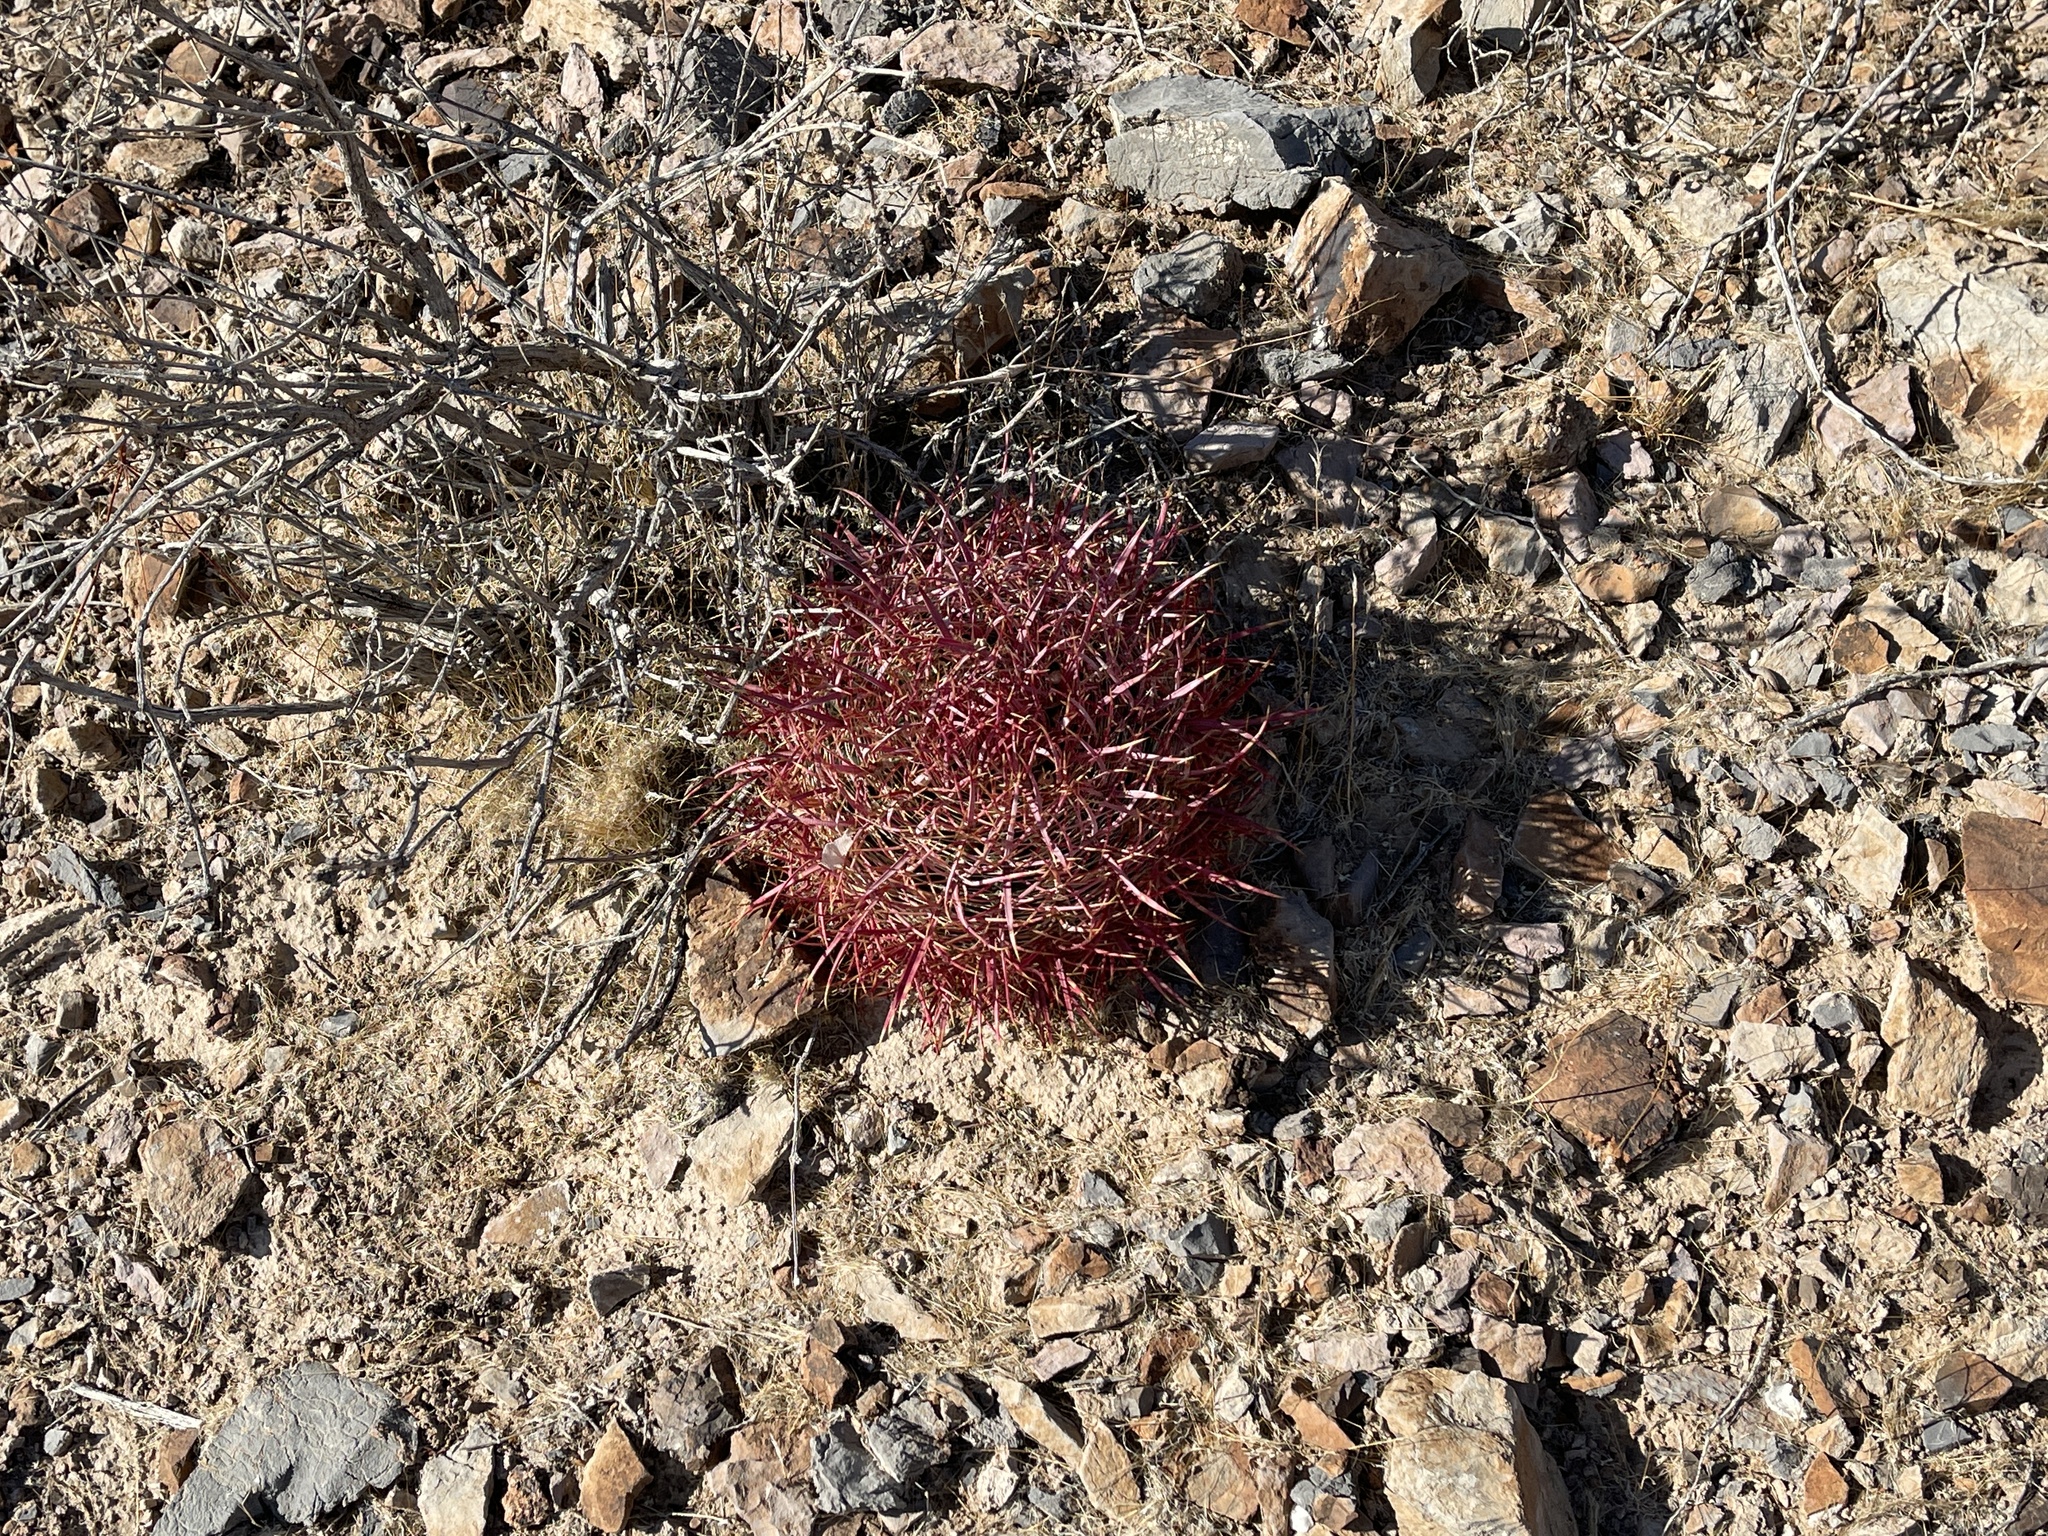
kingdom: Plantae
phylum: Tracheophyta
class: Magnoliopsida
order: Caryophyllales
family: Cactaceae
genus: Ferocactus
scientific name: Ferocactus cylindraceus
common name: California barrel cactus
